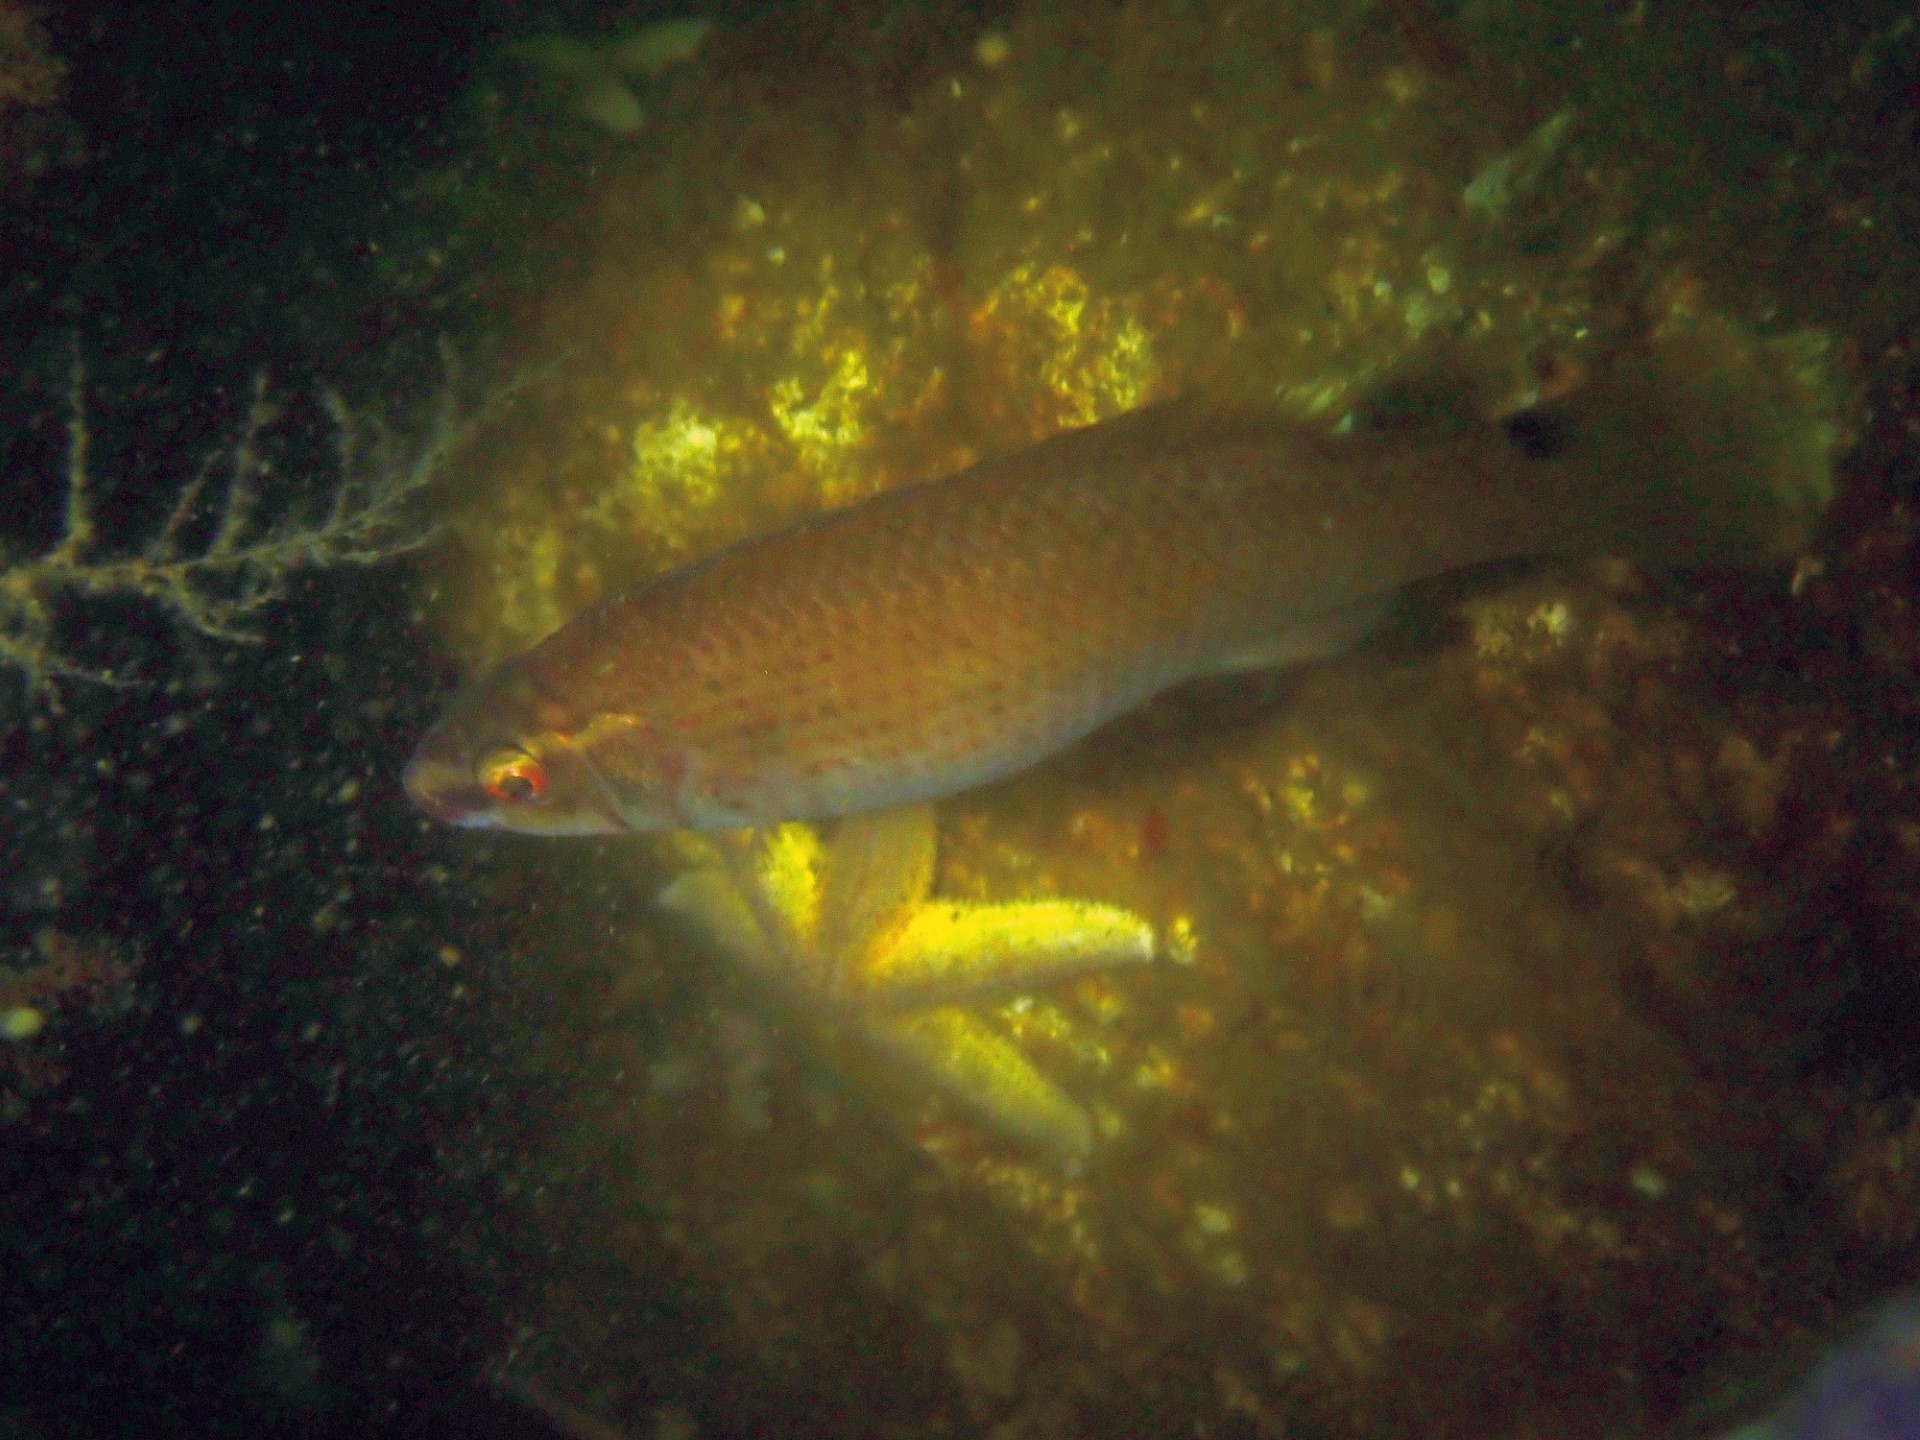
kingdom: Animalia
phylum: Chordata
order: Perciformes
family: Labridae
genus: Ctenolabrus
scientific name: Ctenolabrus rupestris
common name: Goldsinny
